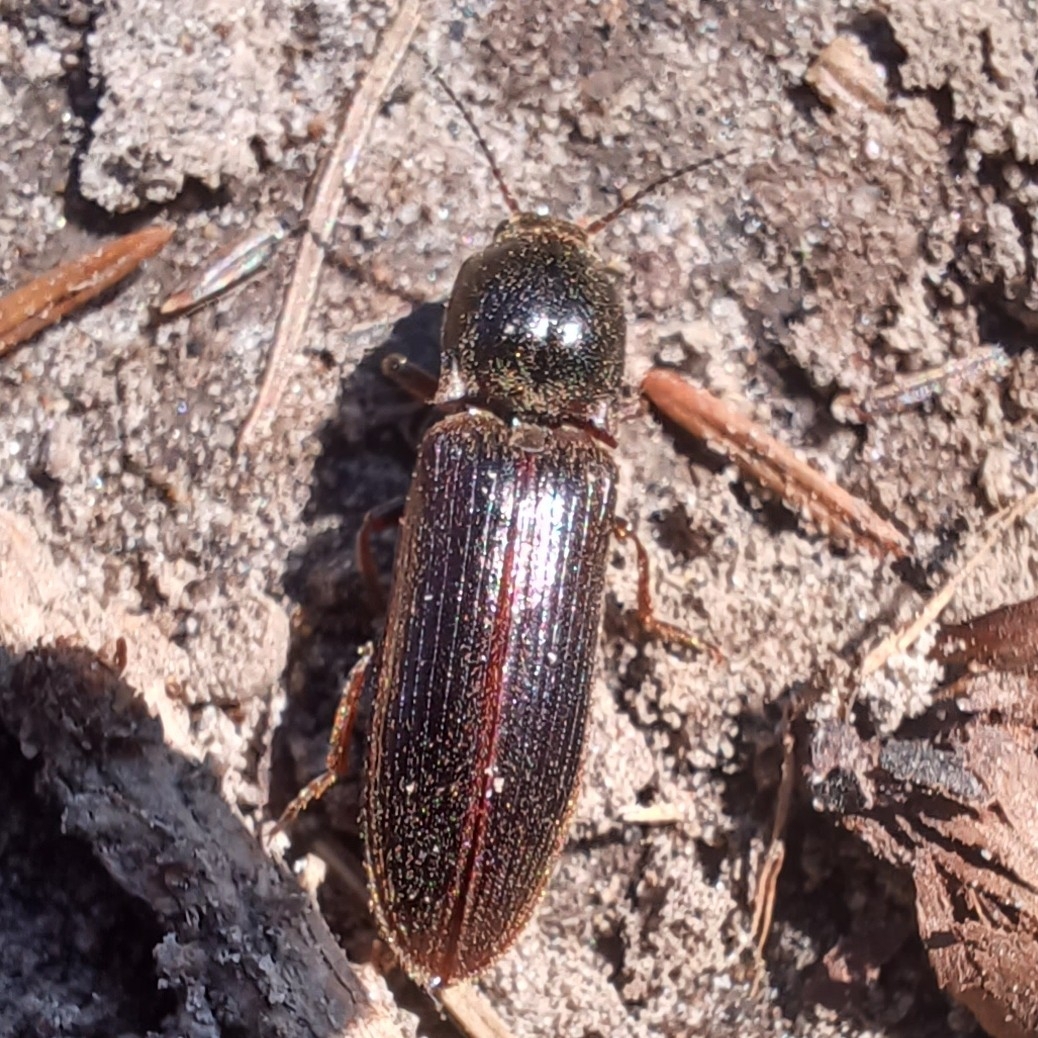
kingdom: Animalia
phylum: Arthropoda
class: Insecta
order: Coleoptera
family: Elateridae
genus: Sylvanelater
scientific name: Sylvanelater cylindriformis
